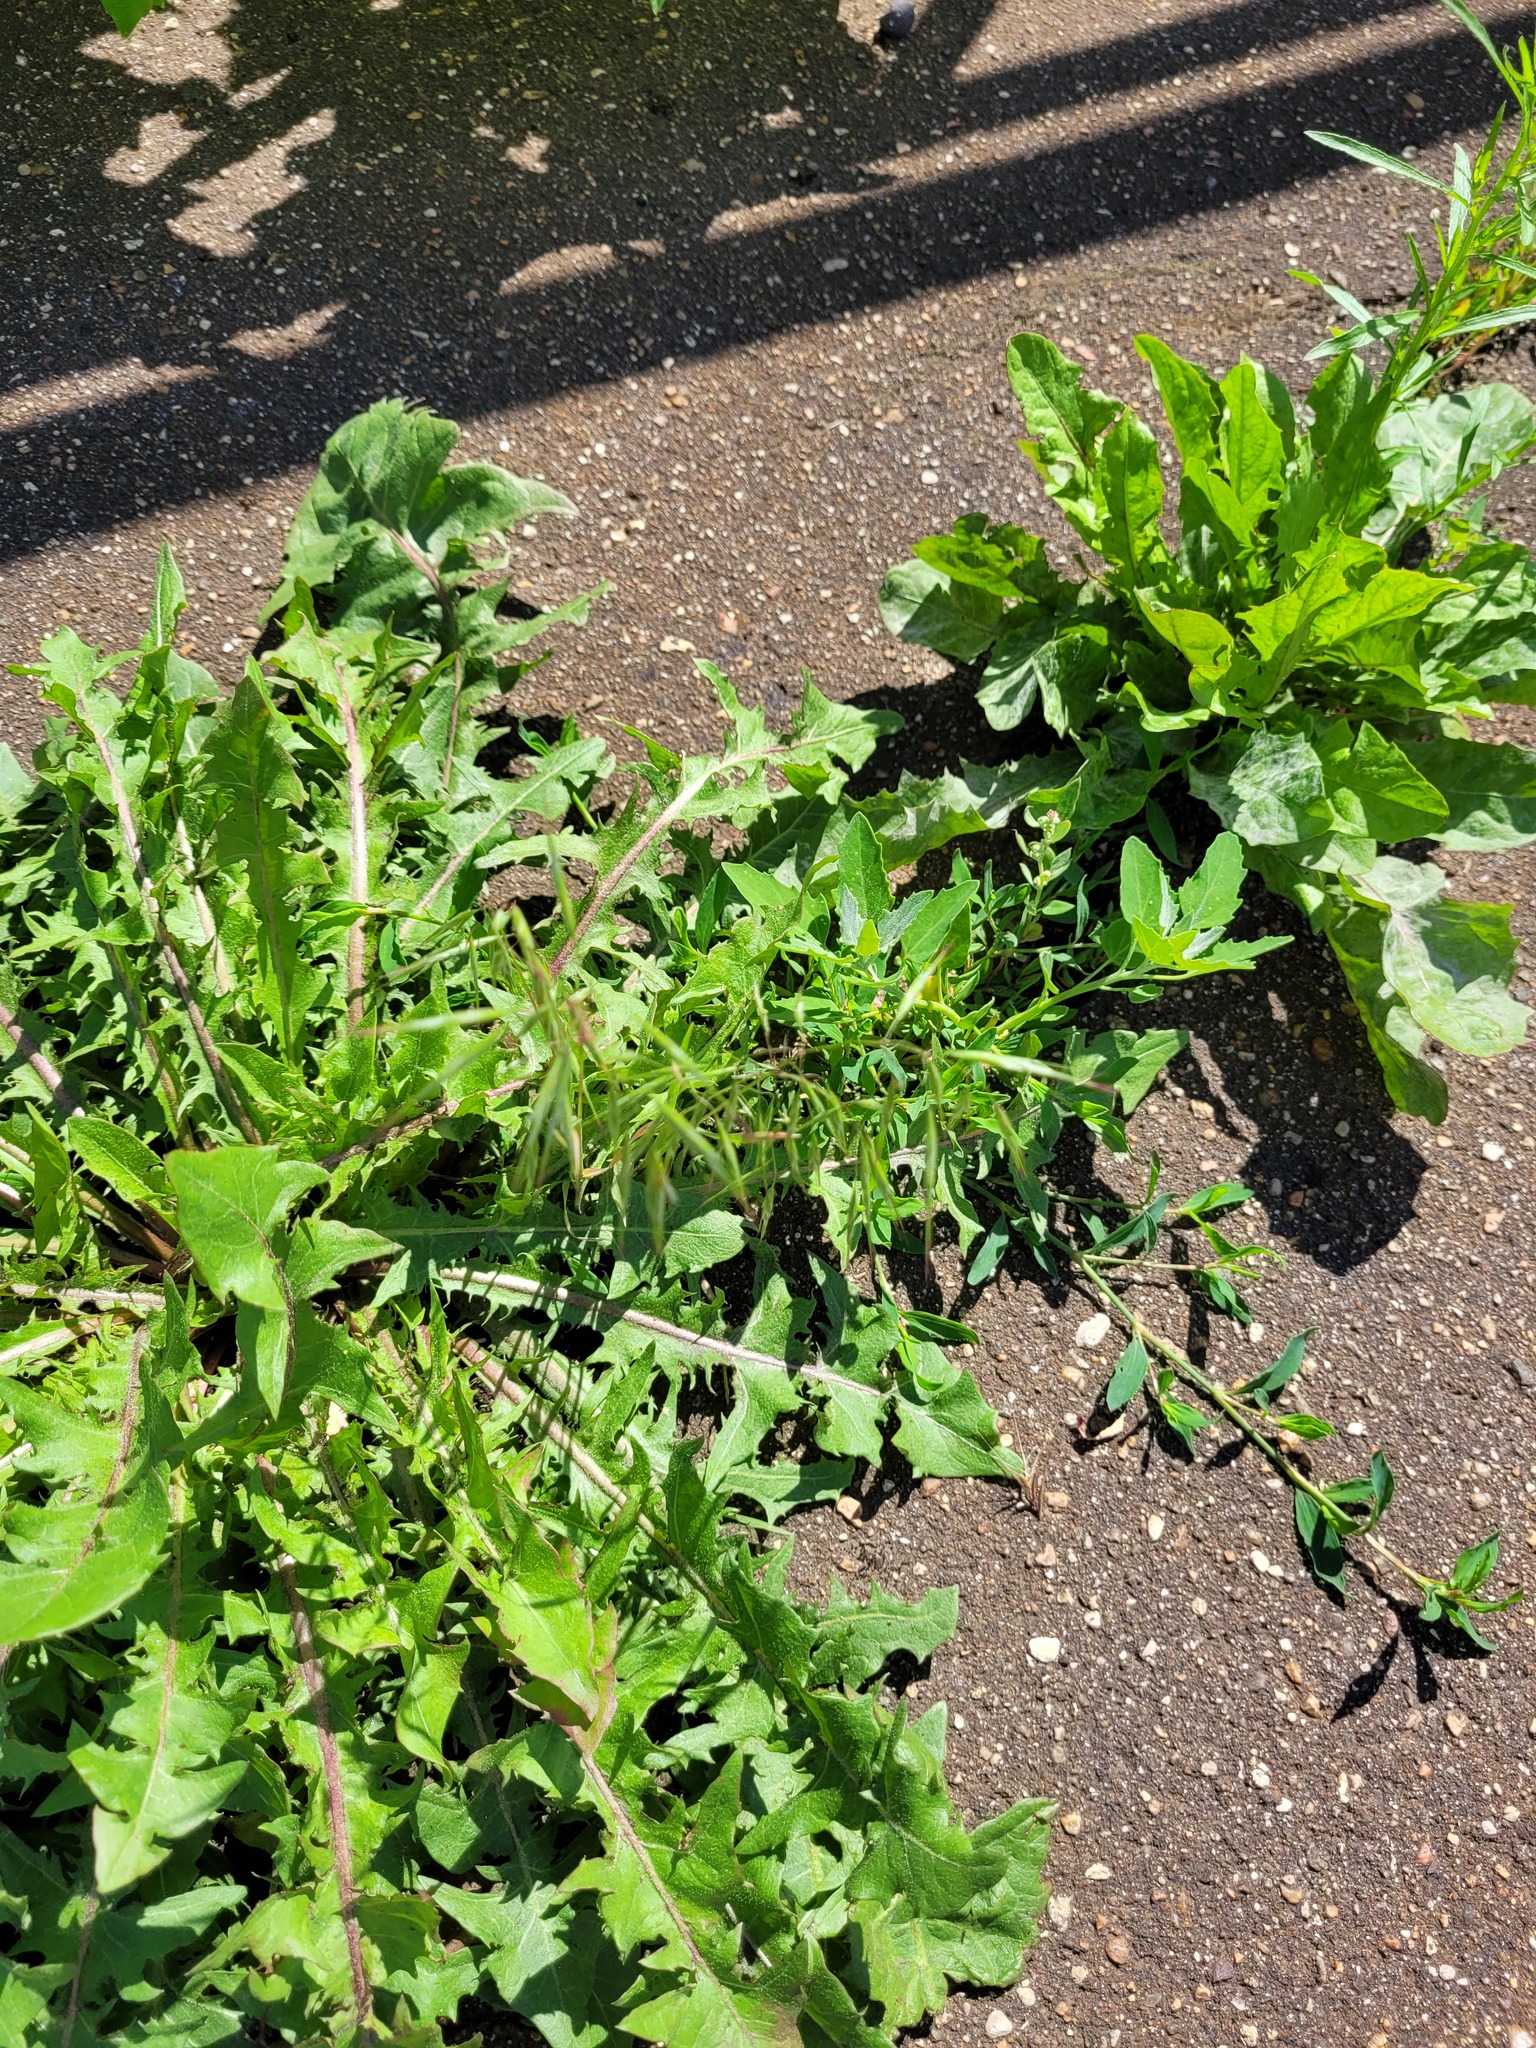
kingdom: Plantae
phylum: Tracheophyta
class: Liliopsida
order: Poales
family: Poaceae
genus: Bromus
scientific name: Bromus tectorum
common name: Cheatgrass
